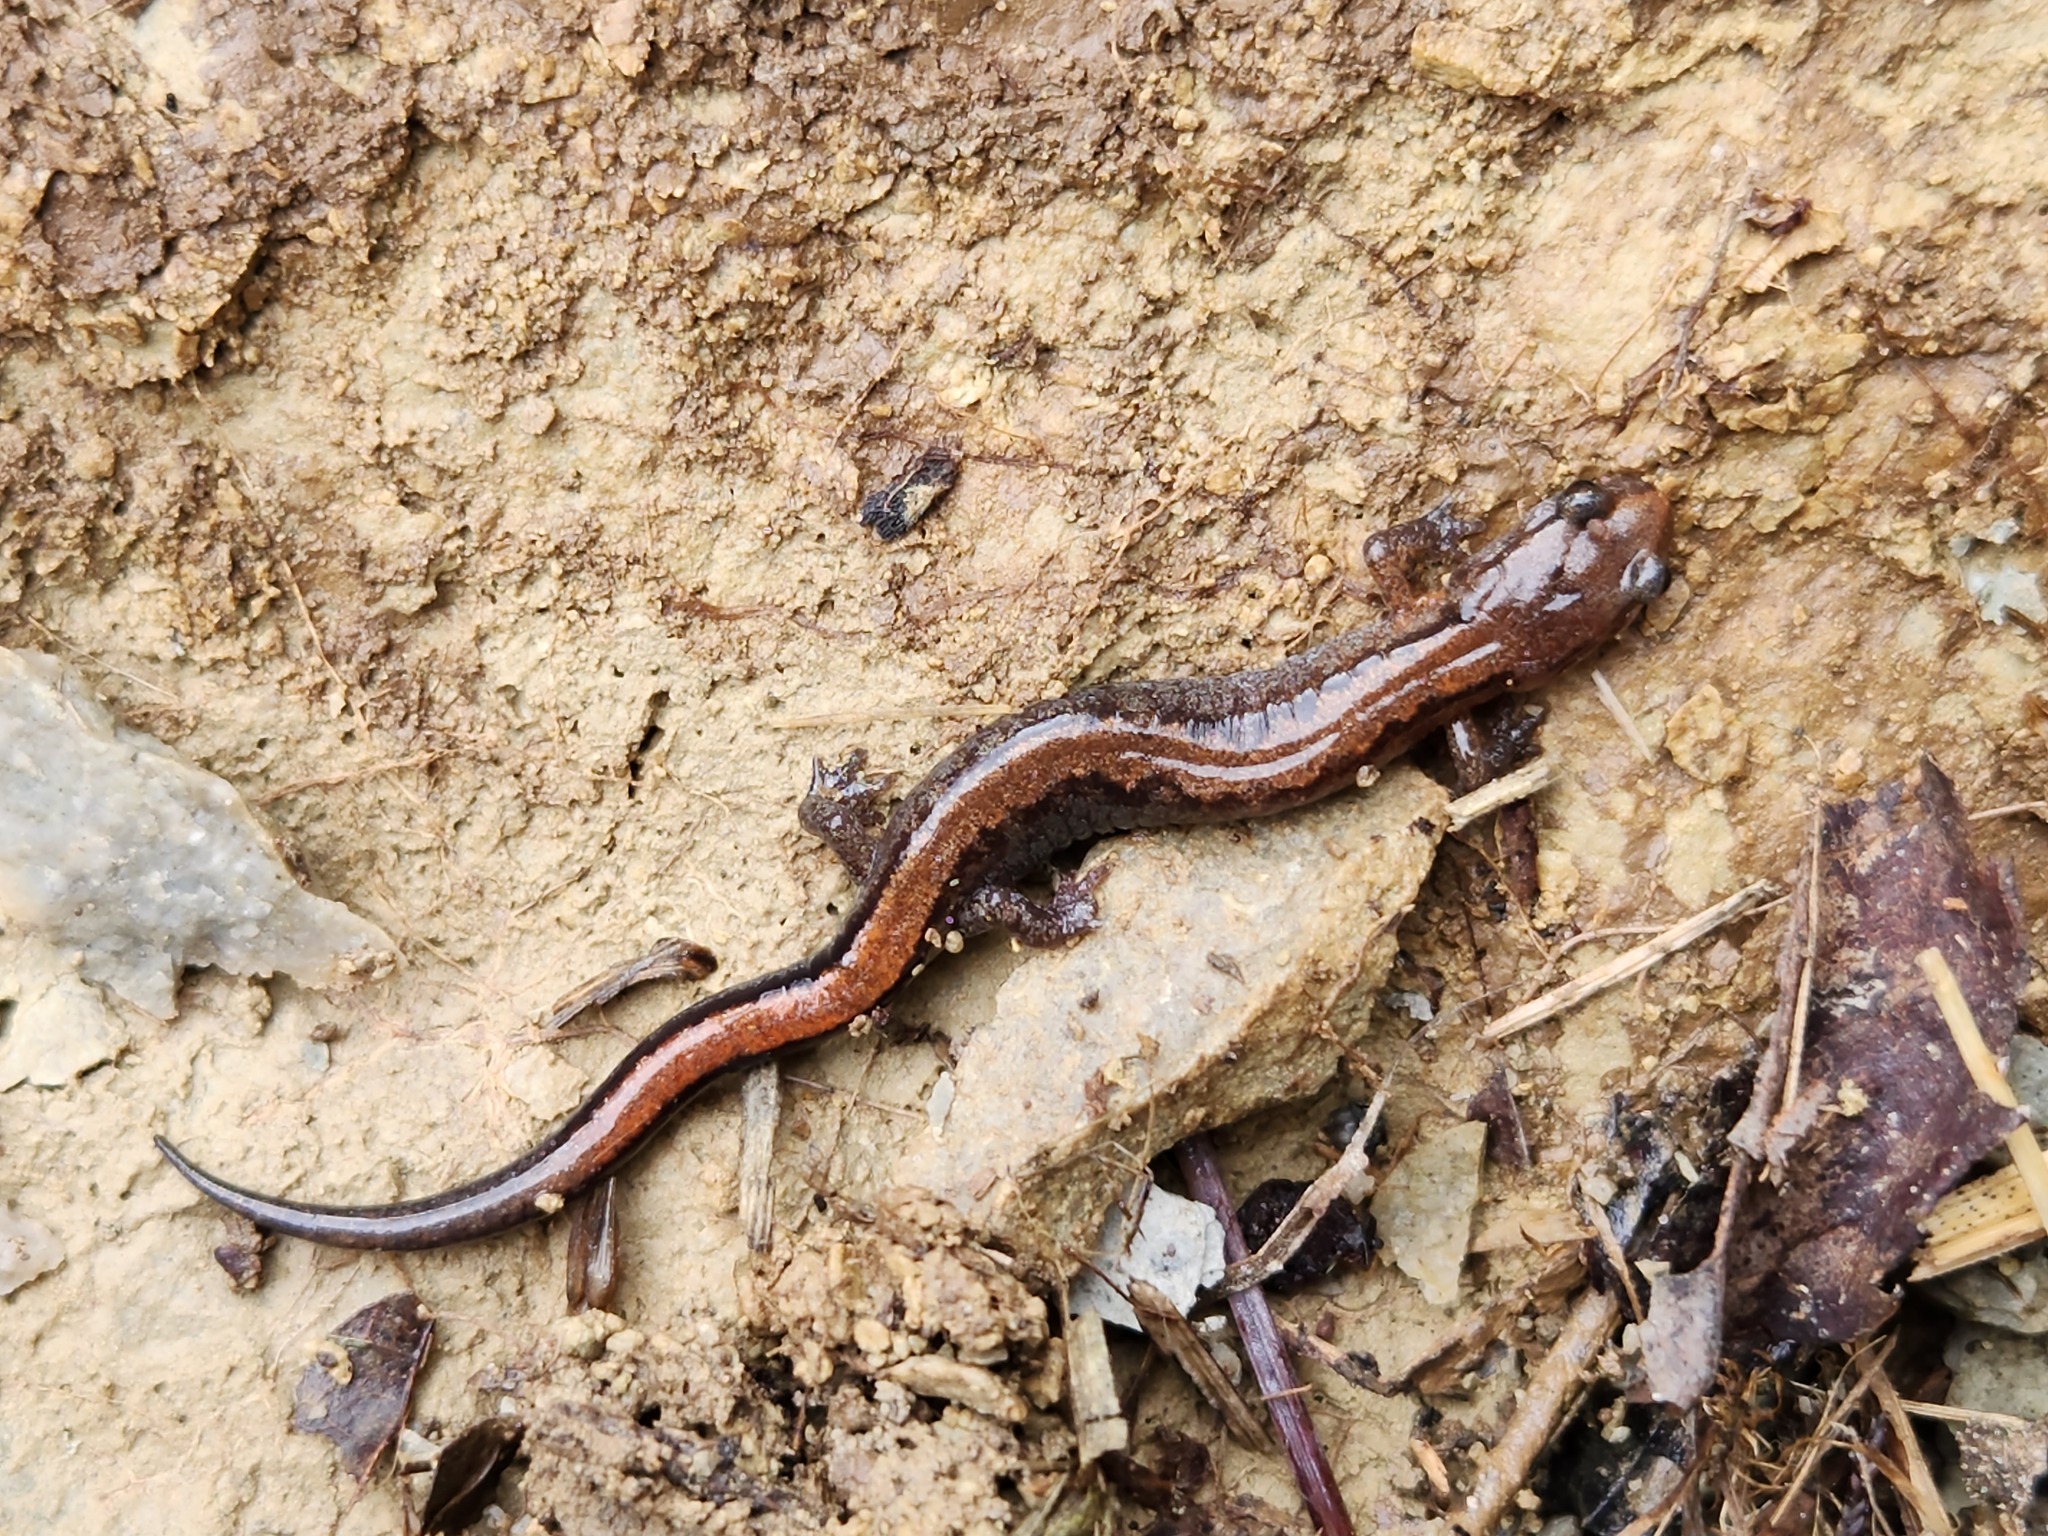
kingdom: Animalia
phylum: Chordata
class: Amphibia
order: Caudata
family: Plethodontidae
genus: Plethodon
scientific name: Plethodon dorsalis
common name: Northern zigzag salamander
